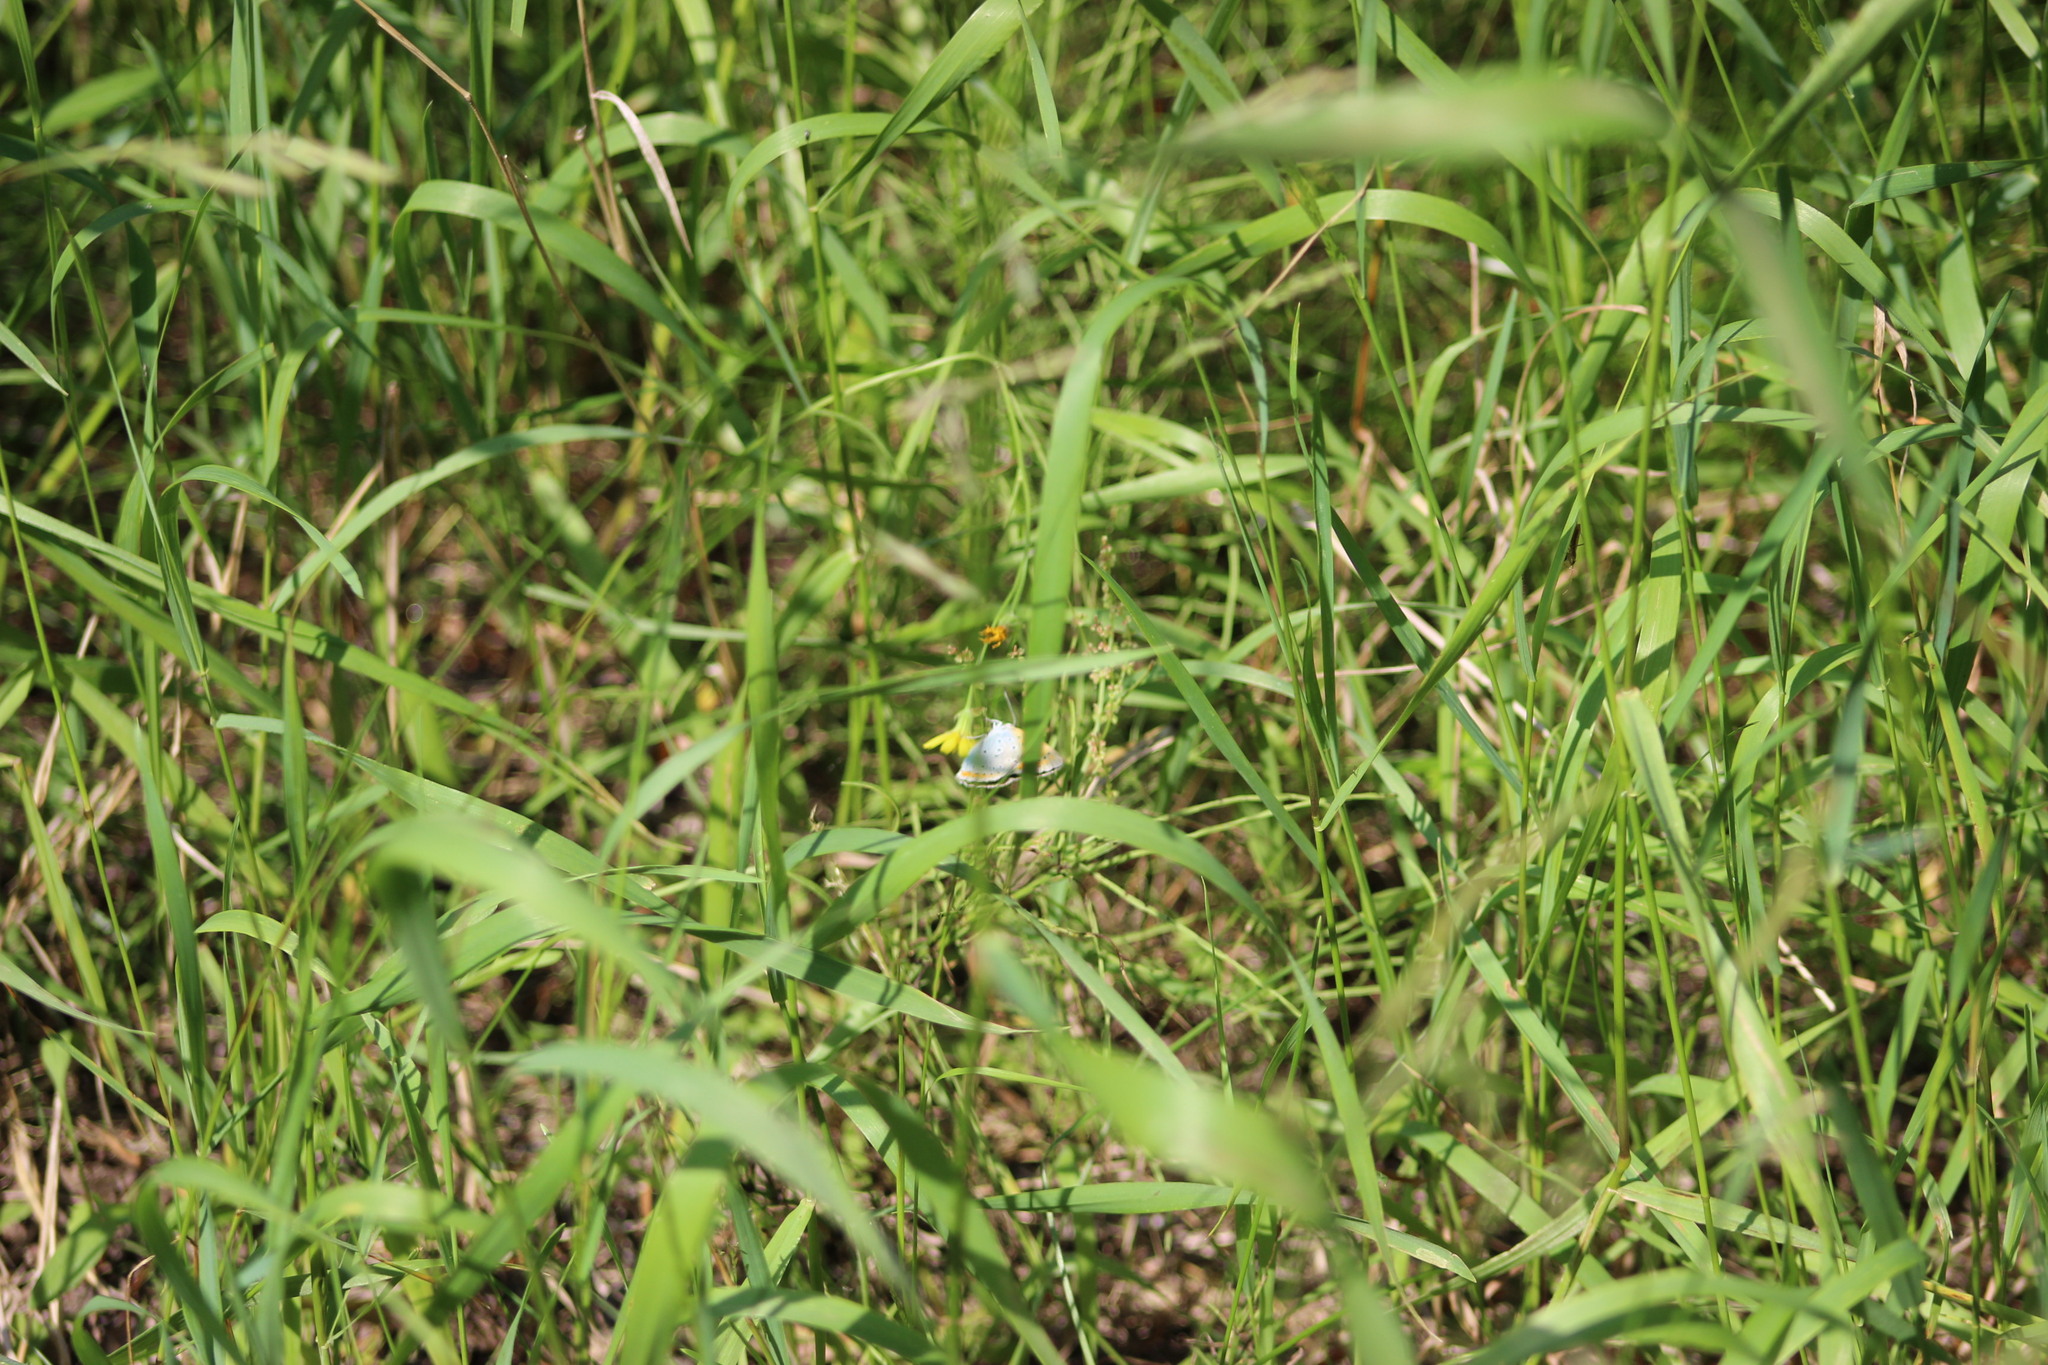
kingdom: Animalia
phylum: Arthropoda
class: Insecta
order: Lepidoptera
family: Lycaenidae
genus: Lycaena
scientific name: Lycaena dispar
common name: Large copper
